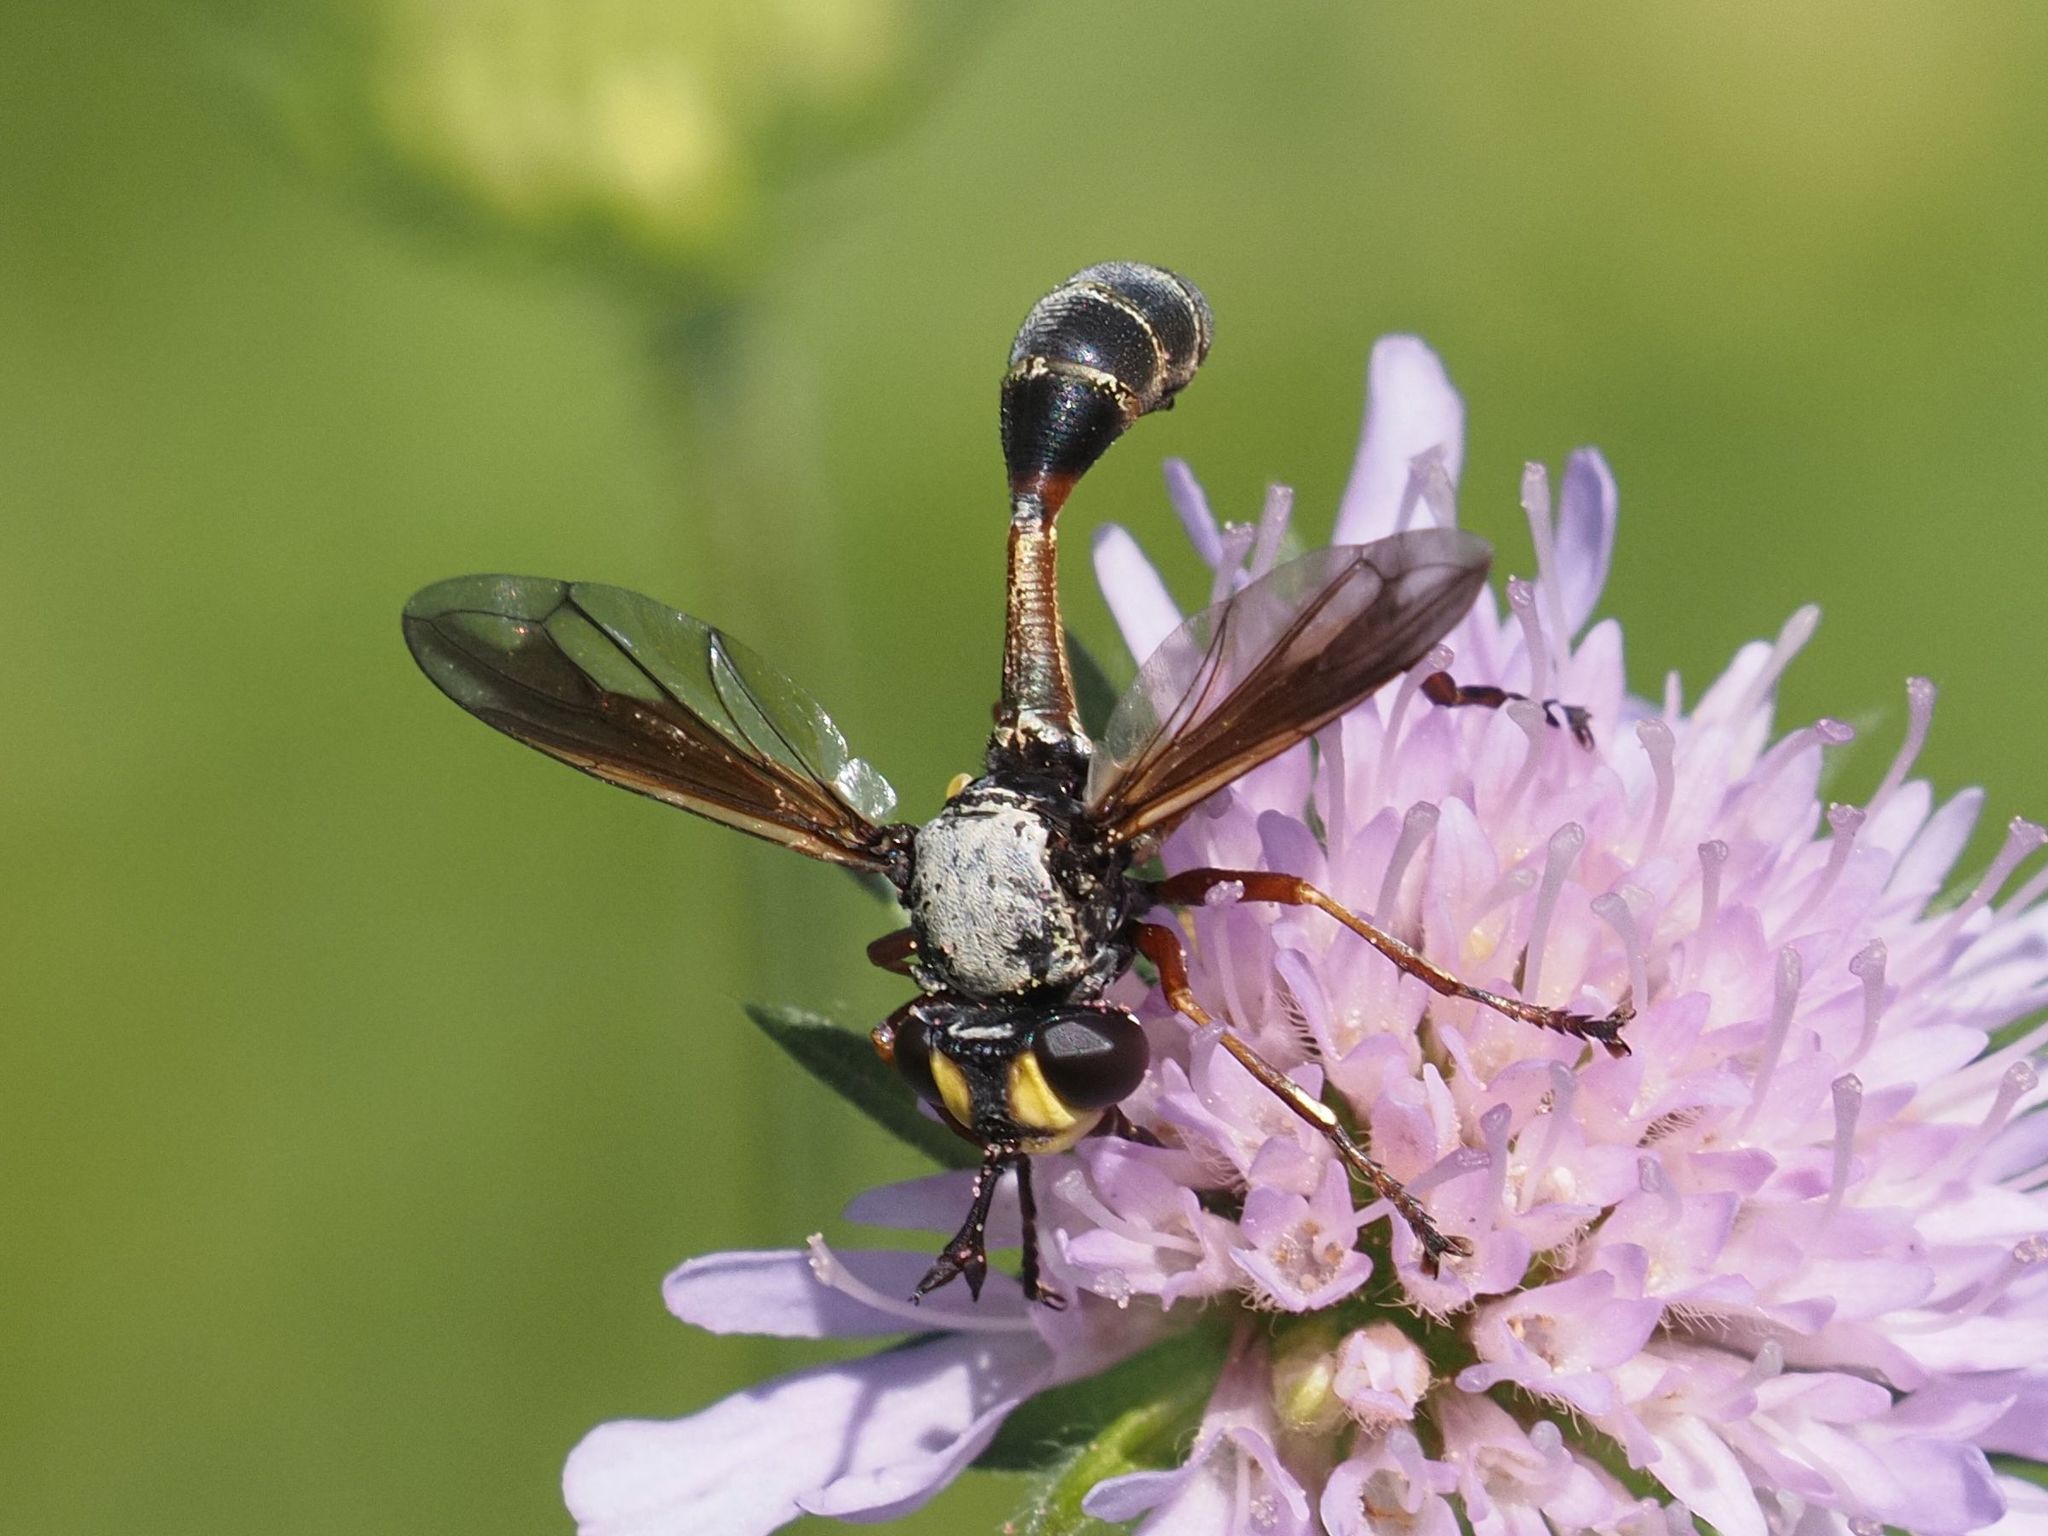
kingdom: Animalia
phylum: Arthropoda
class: Insecta
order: Diptera
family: Conopidae
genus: Physocephala
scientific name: Physocephala rufipes
